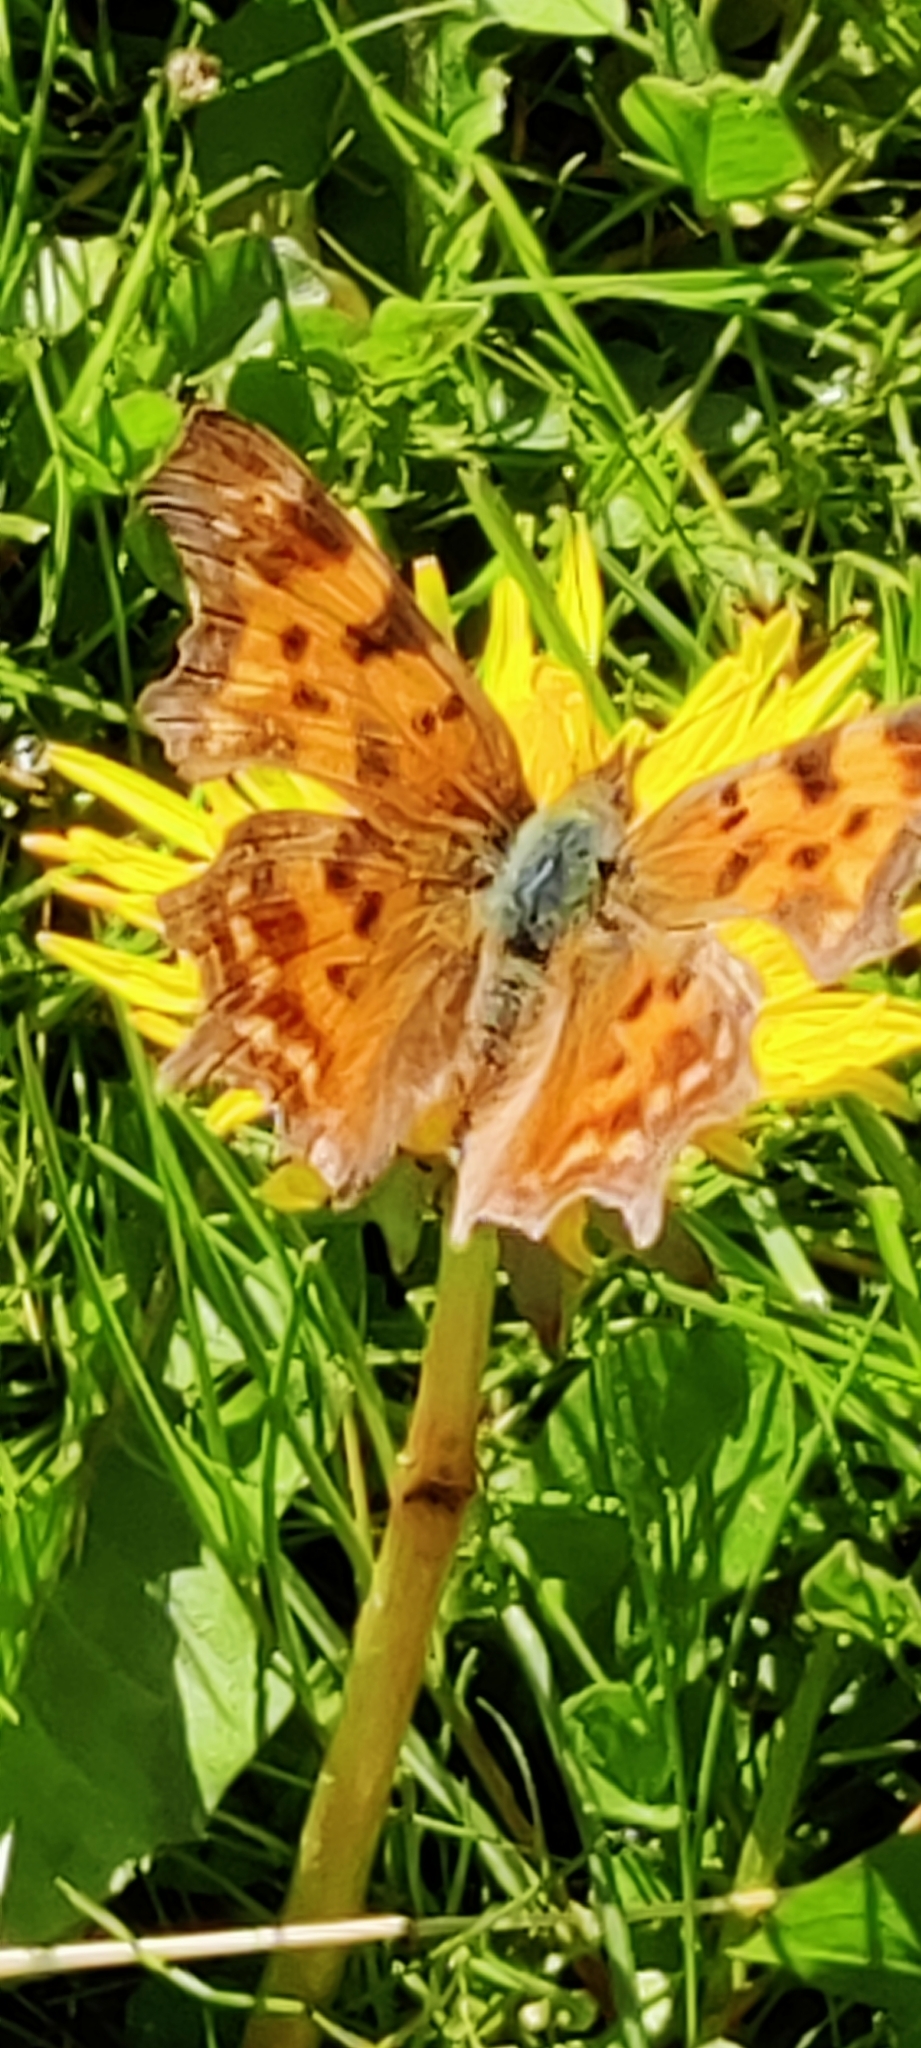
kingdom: Animalia
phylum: Arthropoda
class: Insecta
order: Lepidoptera
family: Nymphalidae
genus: Polygonia
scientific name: Polygonia c-album
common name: Comma
